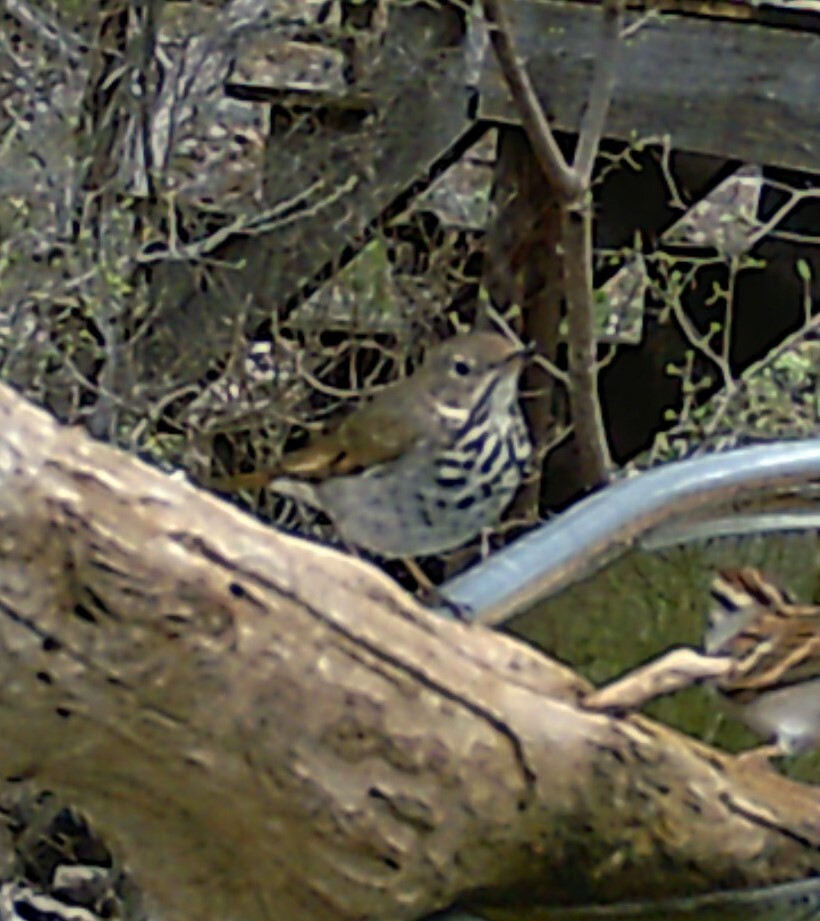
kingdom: Animalia
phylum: Chordata
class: Aves
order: Passeriformes
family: Turdidae
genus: Catharus
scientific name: Catharus guttatus
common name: Hermit thrush
